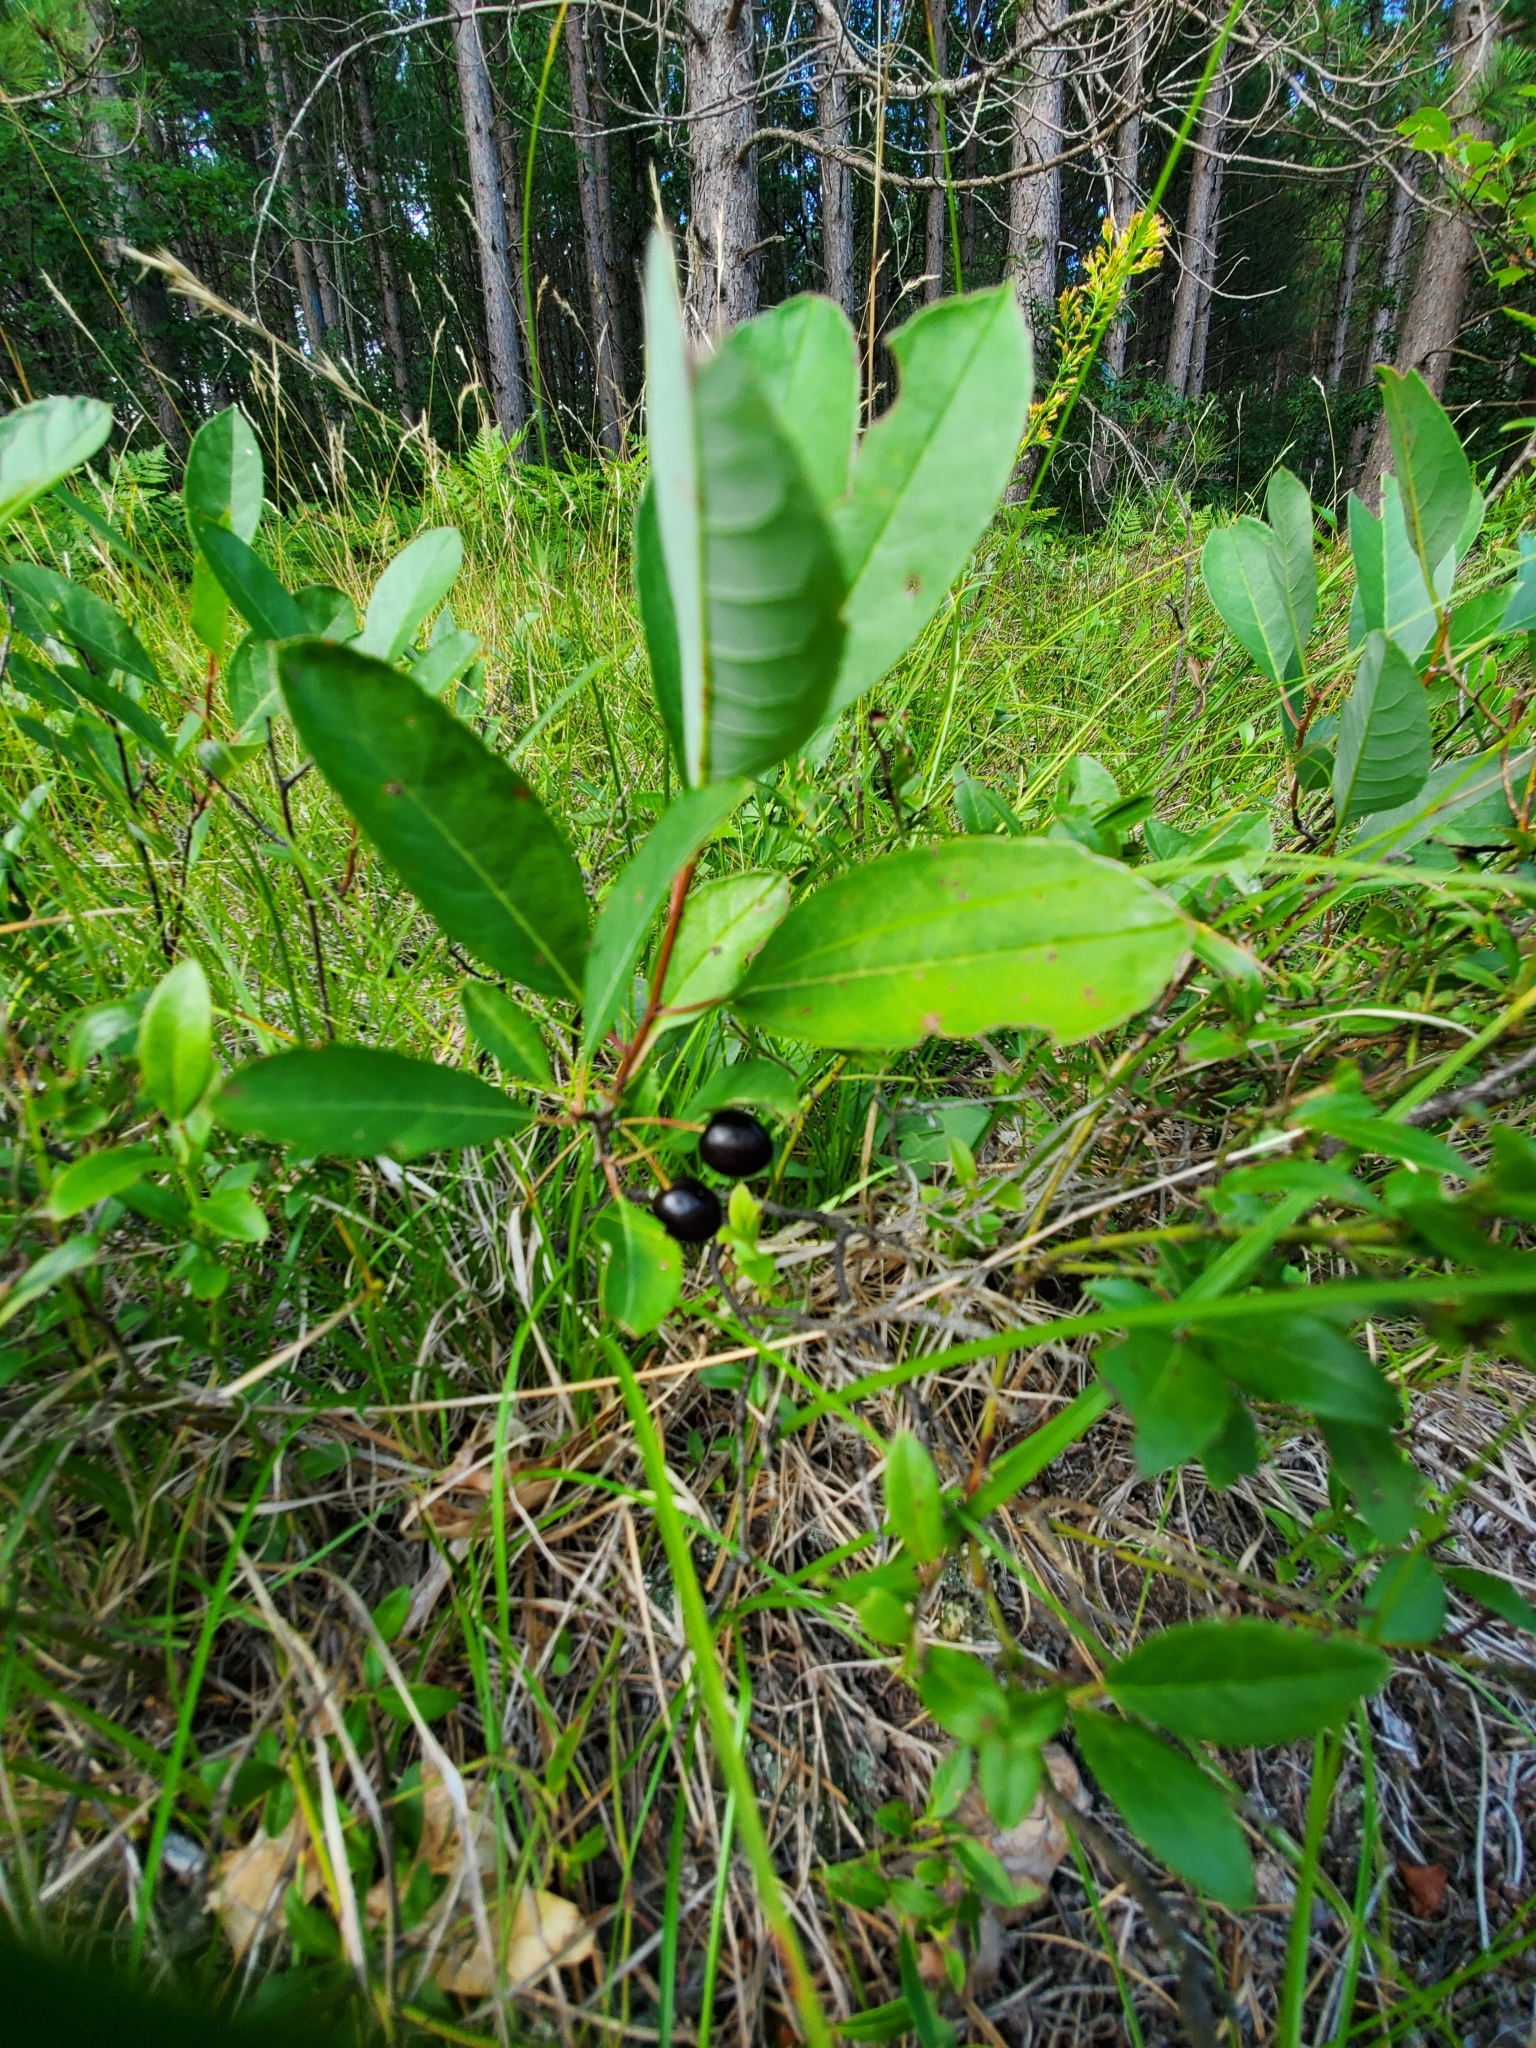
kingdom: Plantae
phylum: Tracheophyta
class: Magnoliopsida
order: Rosales
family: Rosaceae
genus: Prunus
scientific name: Prunus pumila
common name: Dwarf cherry
